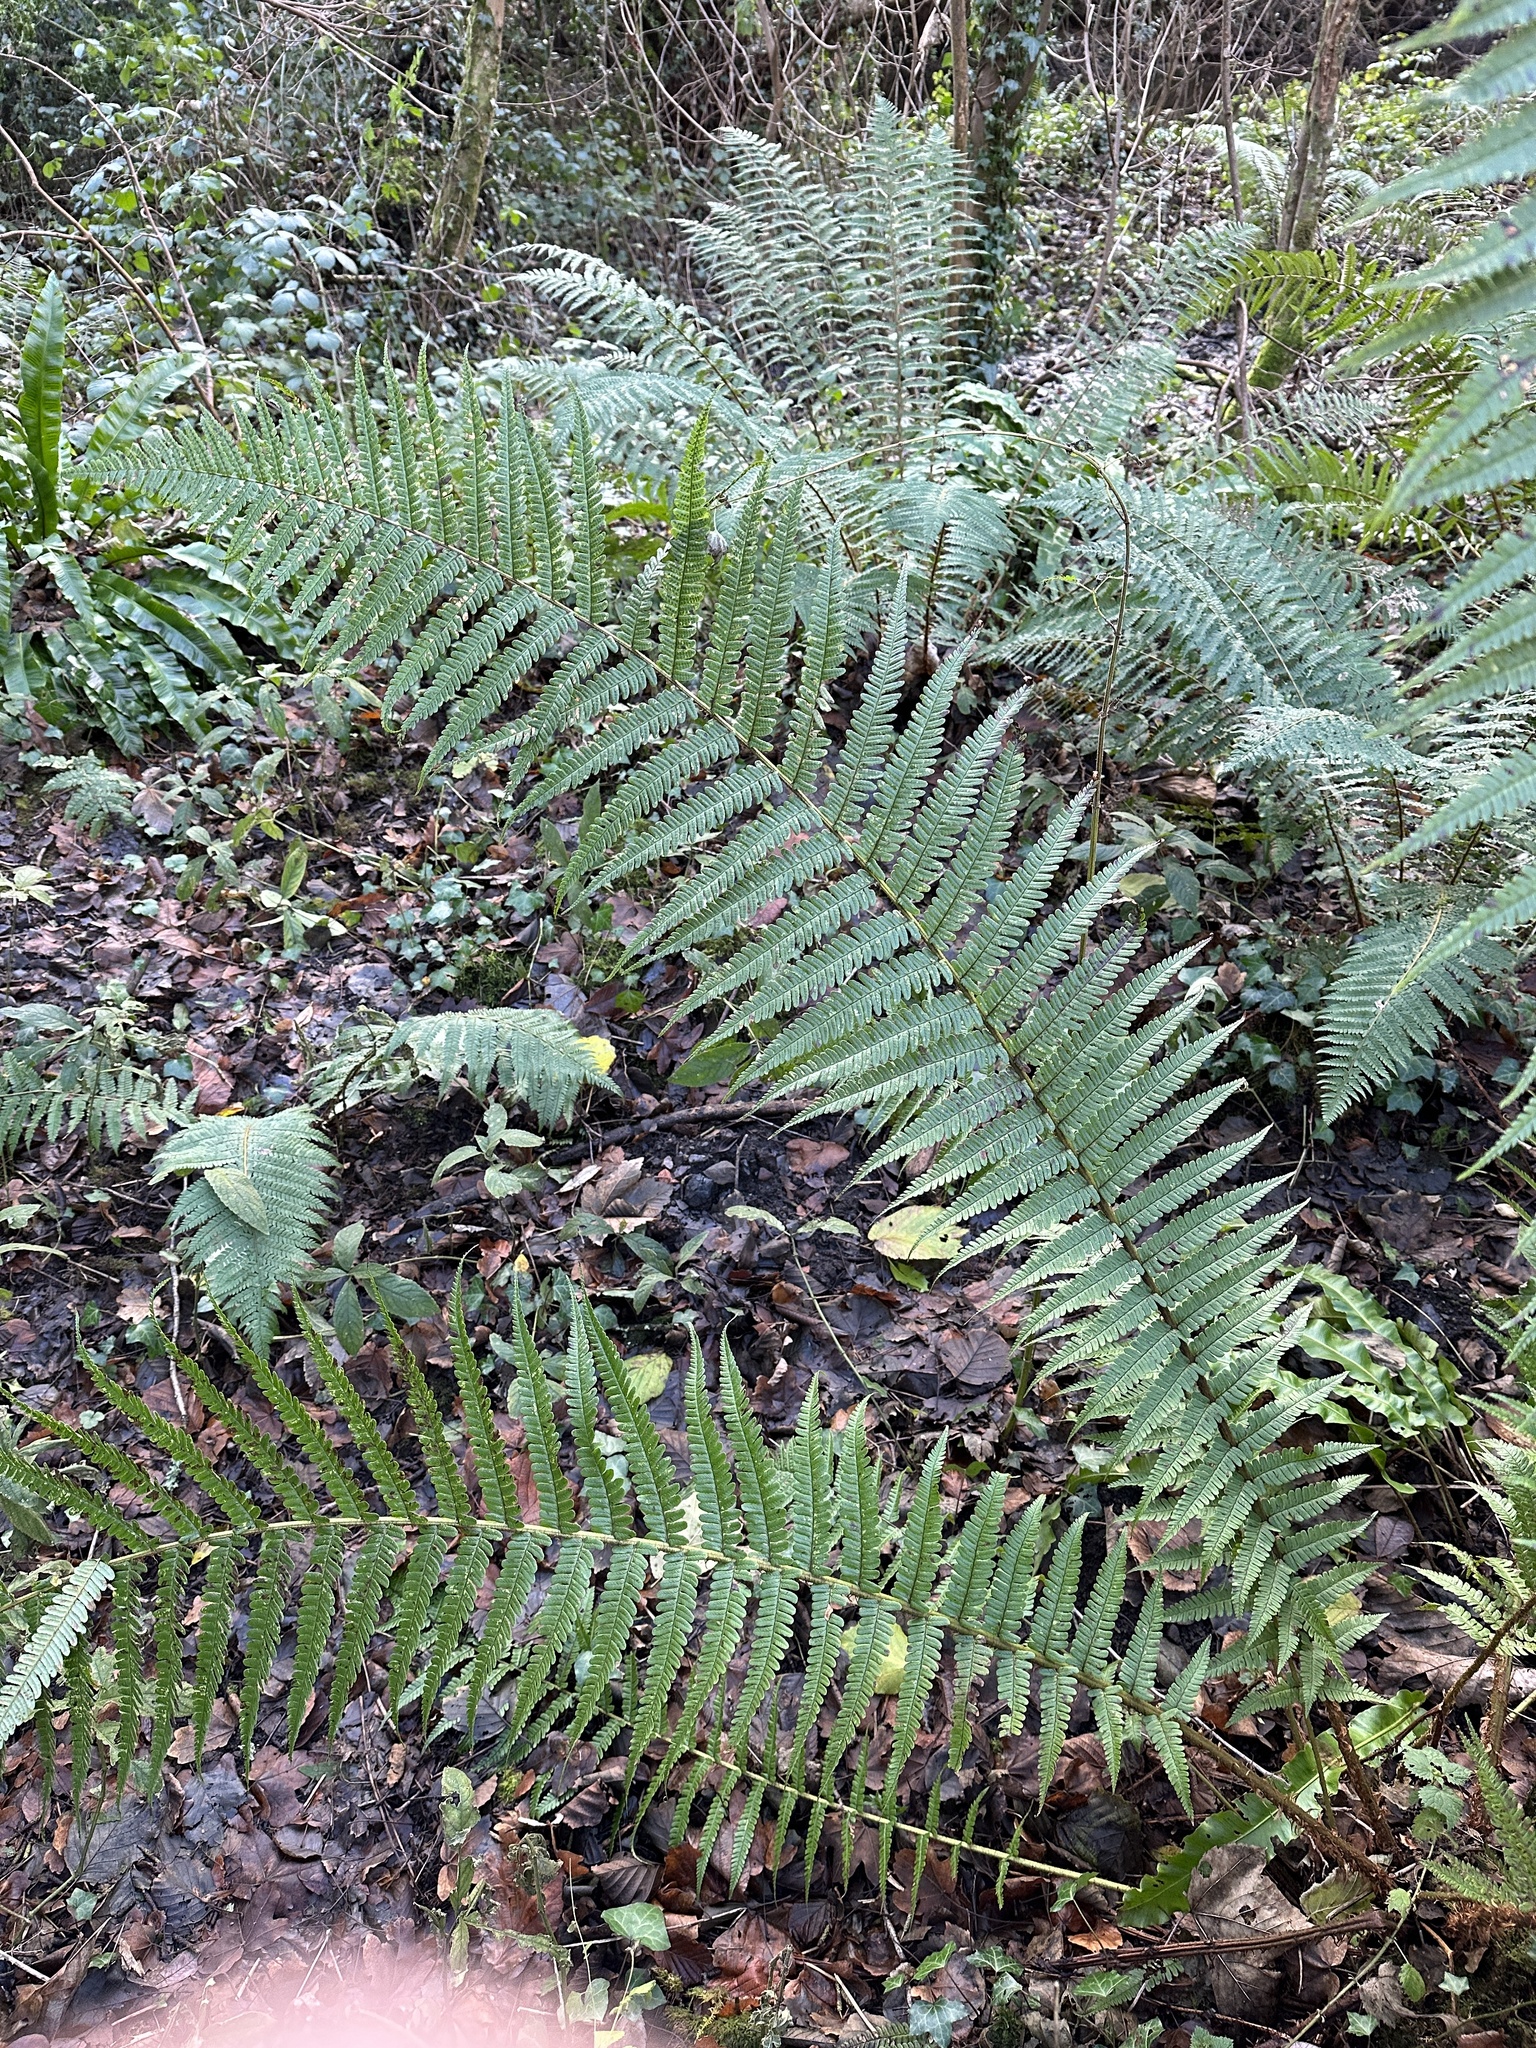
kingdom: Plantae
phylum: Tracheophyta
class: Polypodiopsida
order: Polypodiales
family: Dryopteridaceae
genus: Dryopteris
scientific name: Dryopteris affinis
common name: Scaly male fern
